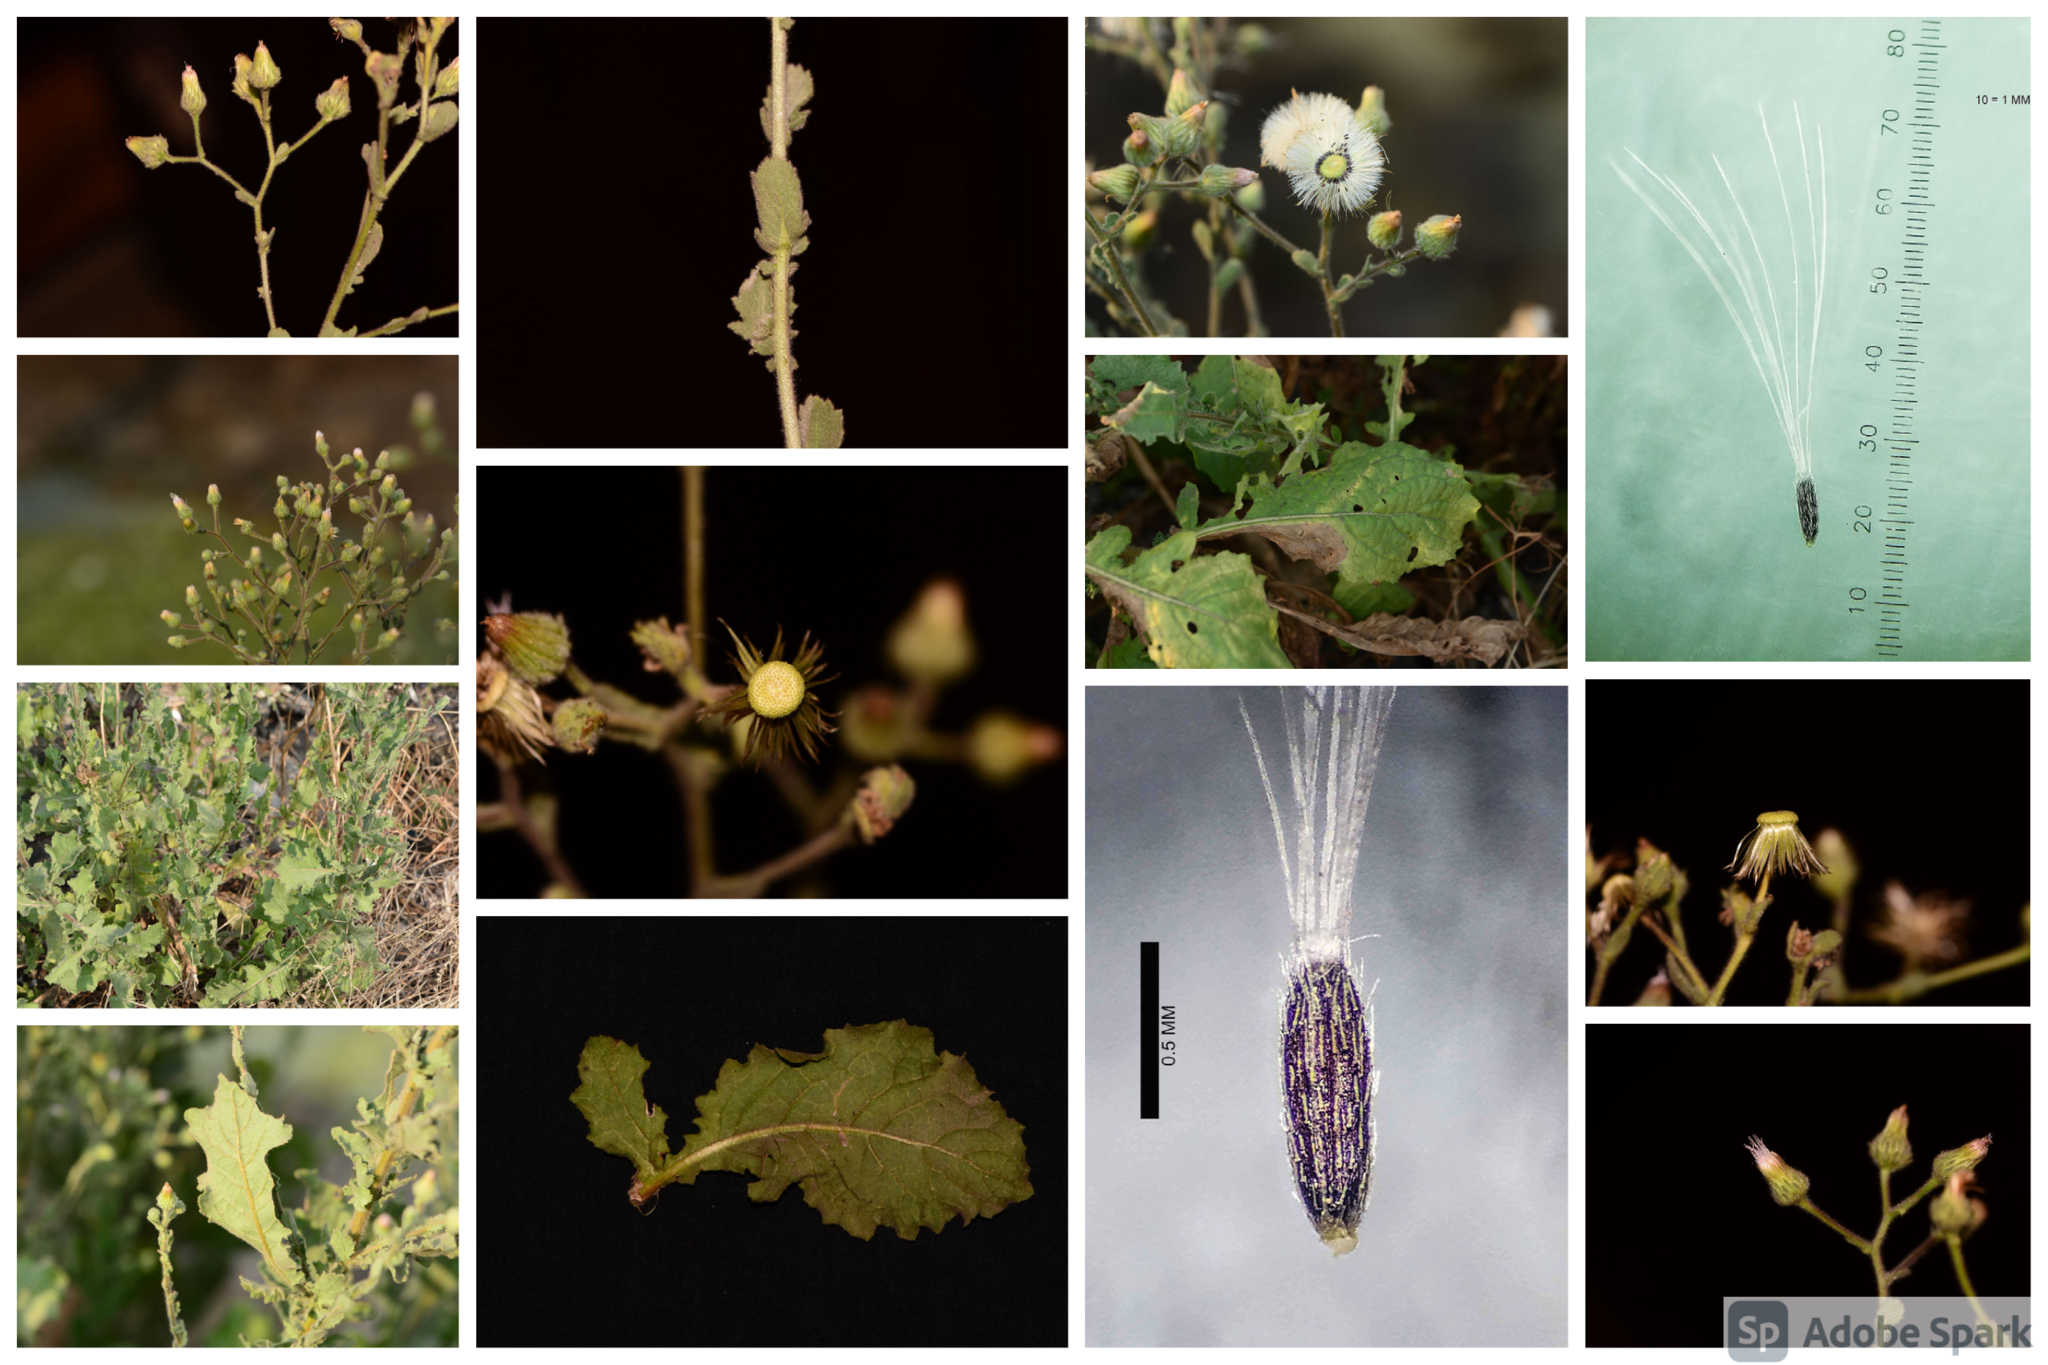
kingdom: Plantae
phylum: Tracheophyta
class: Magnoliopsida
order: Asterales
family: Asteraceae
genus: Pseudoconyza
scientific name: Pseudoconyza viscosa
